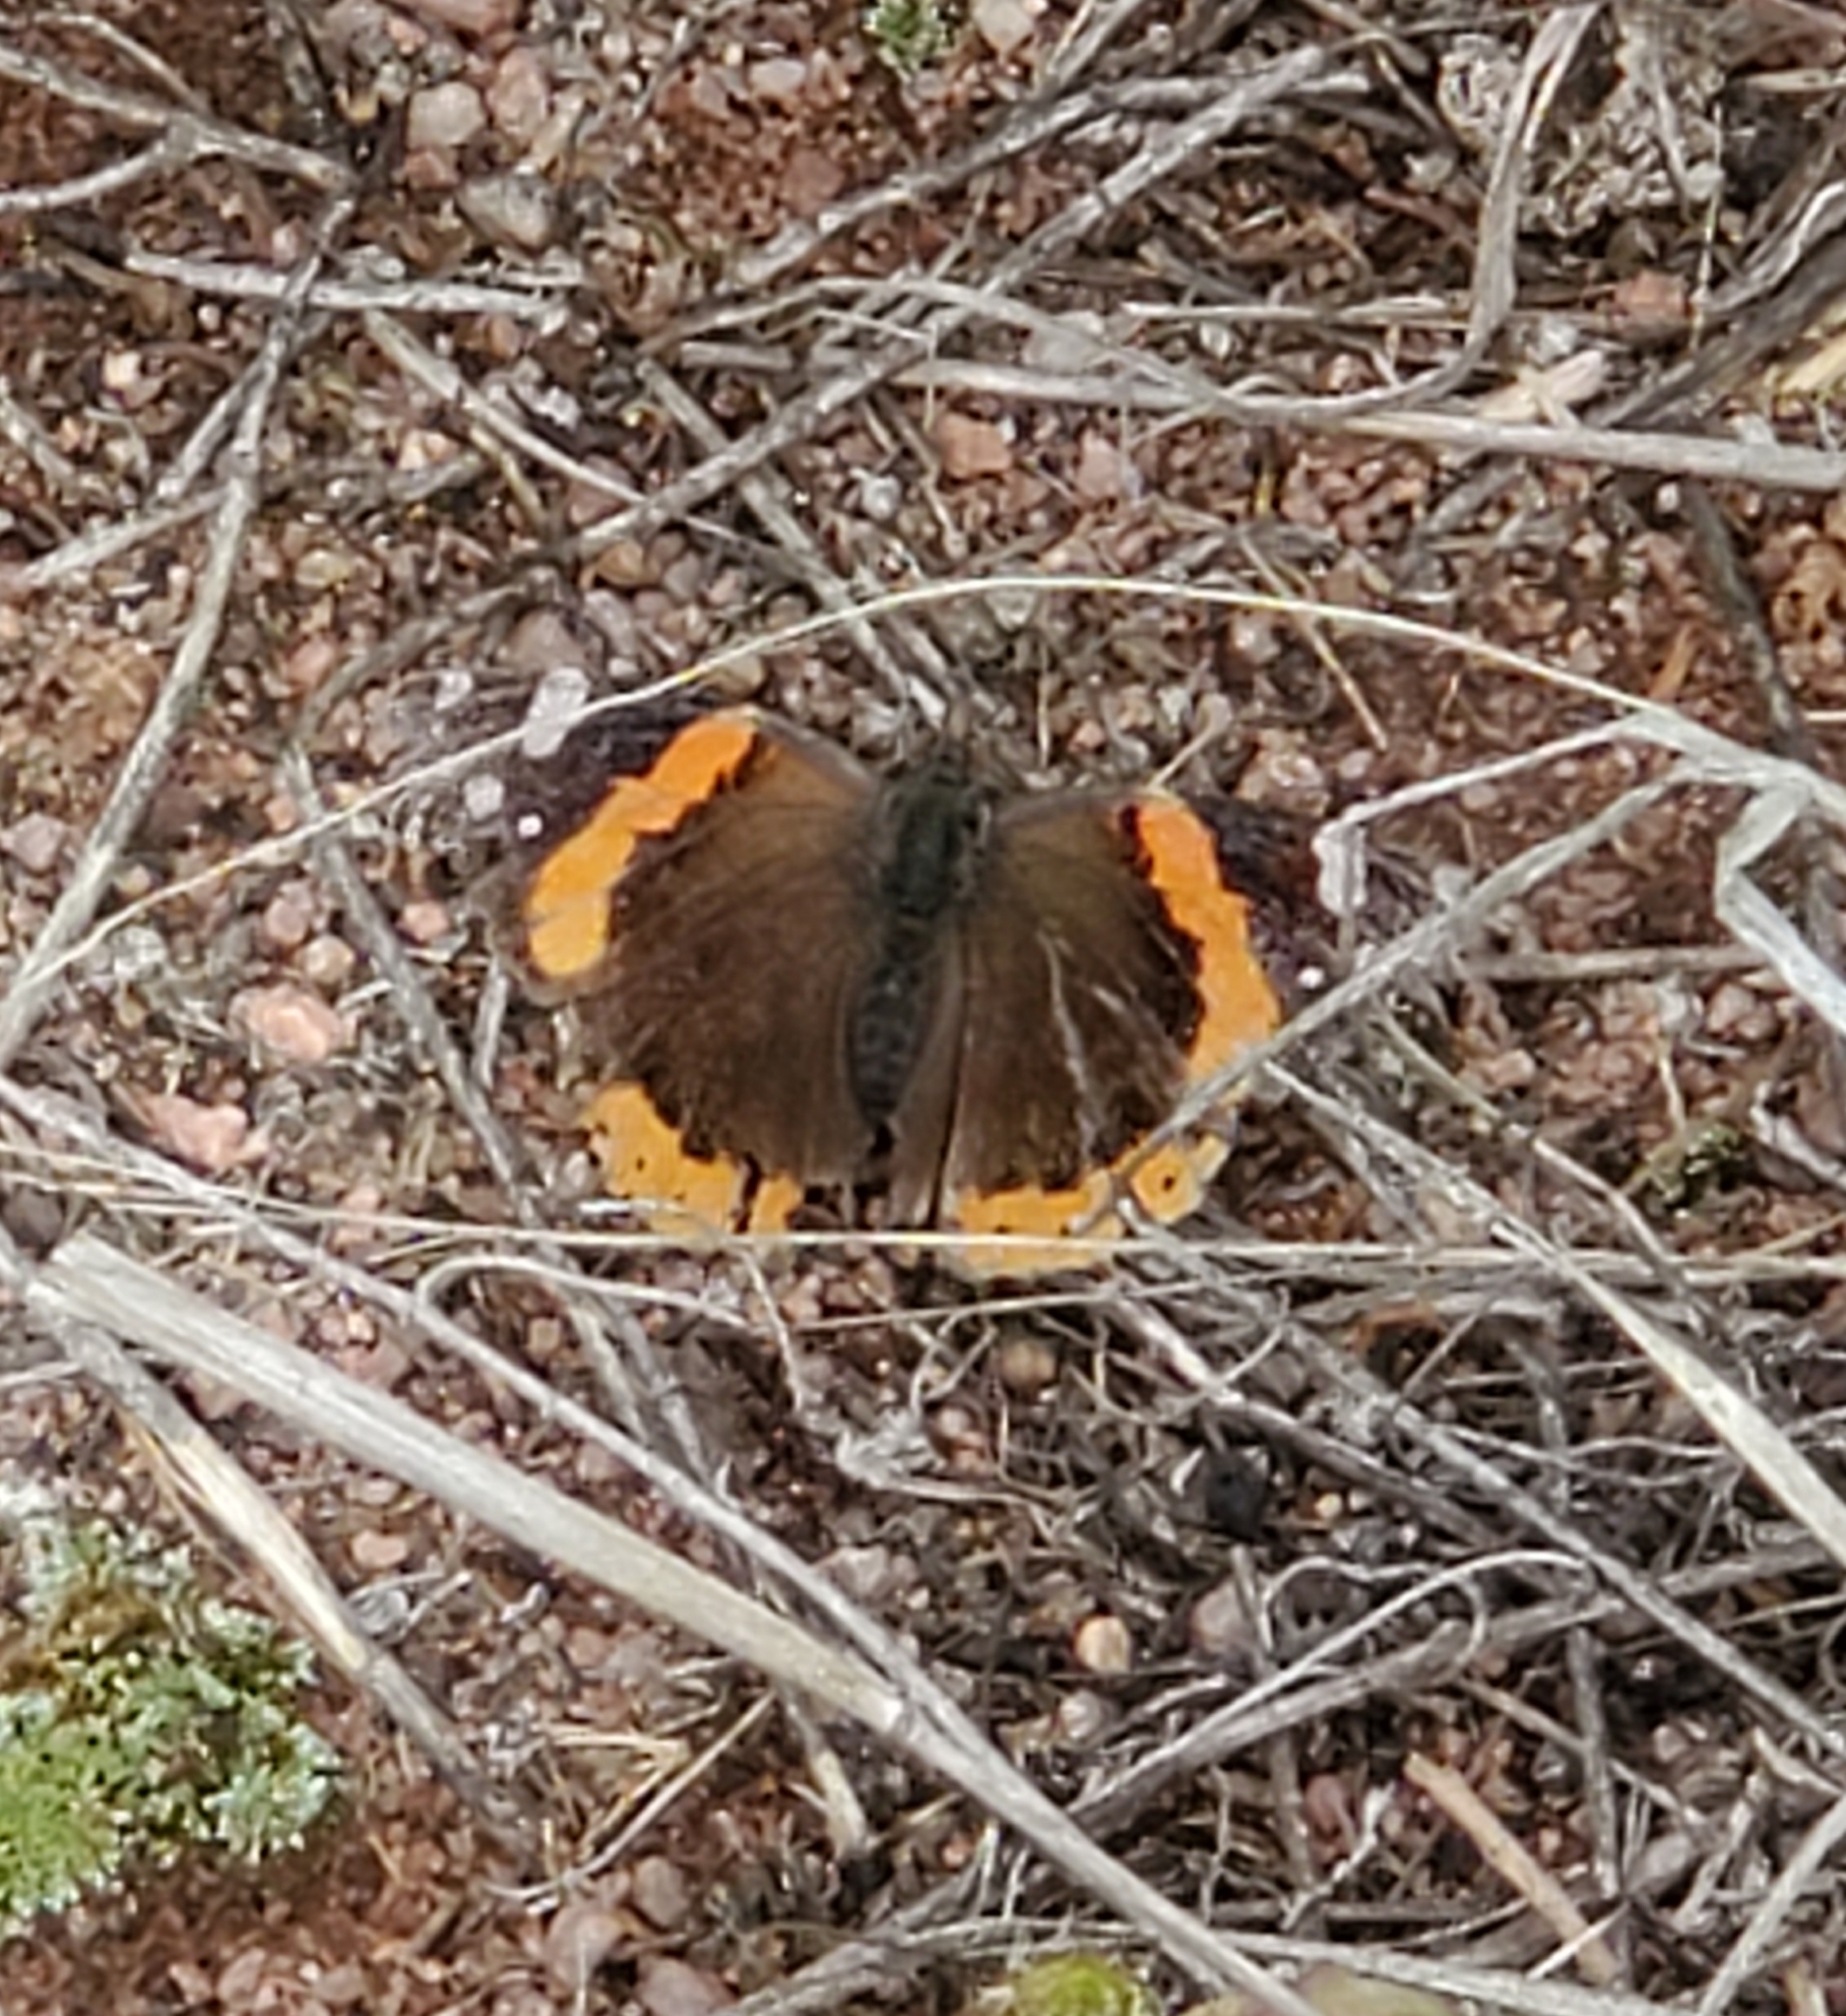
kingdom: Animalia
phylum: Arthropoda
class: Insecta
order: Lepidoptera
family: Nymphalidae
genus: Vanessa
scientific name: Vanessa atalanta
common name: Red admiral
